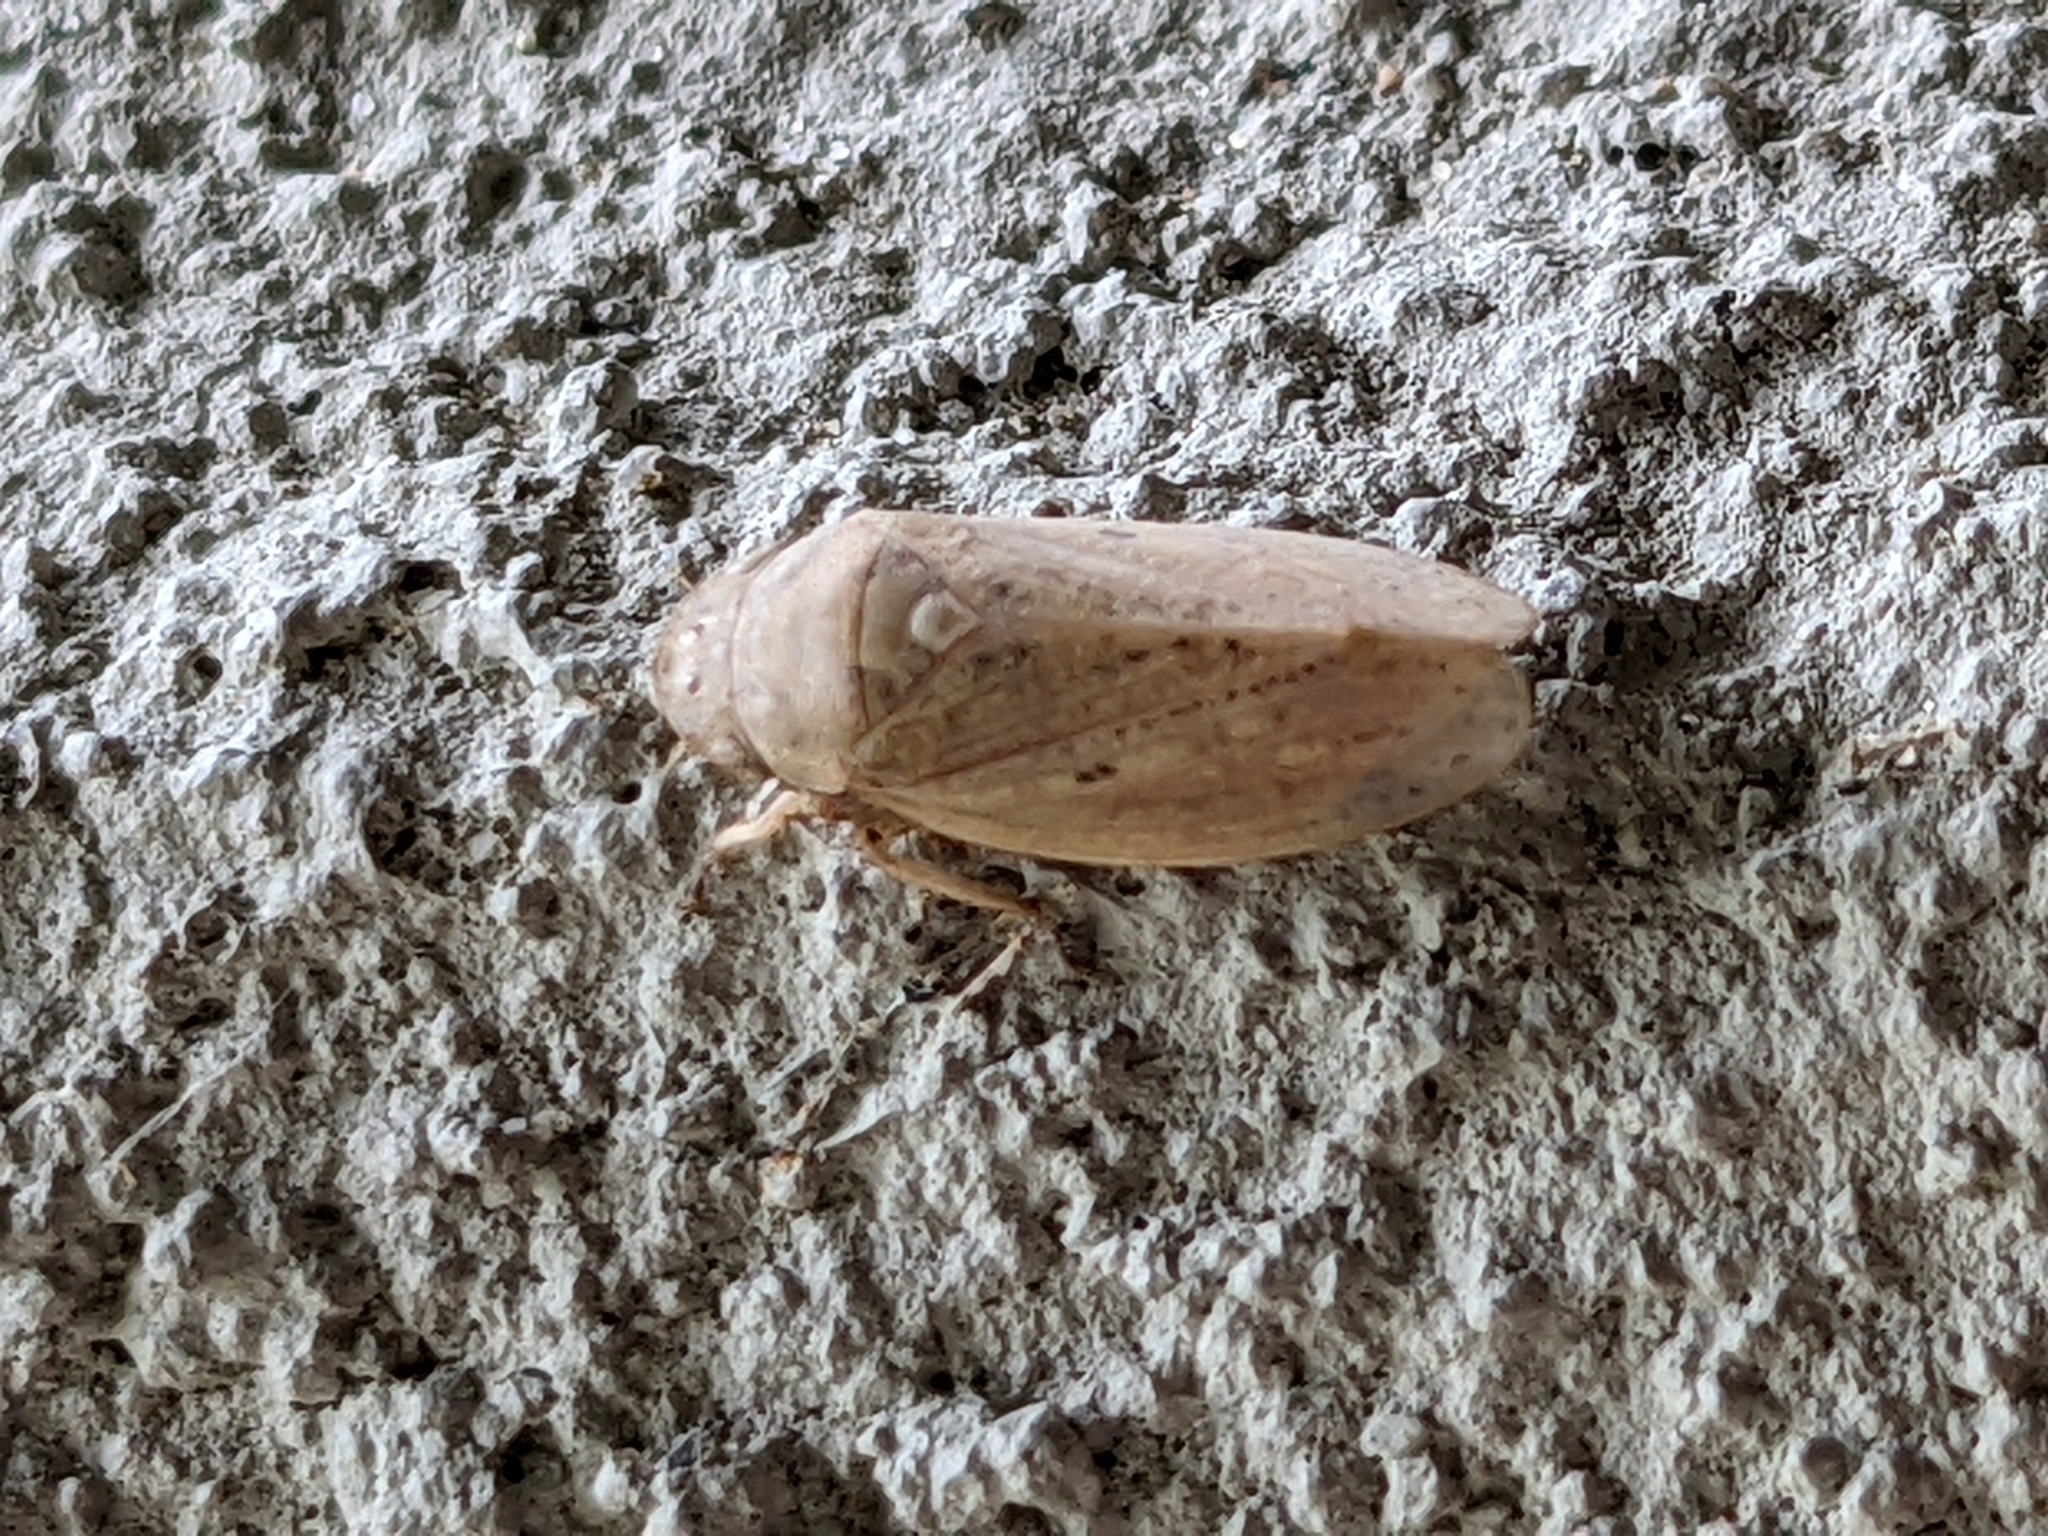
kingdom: Animalia
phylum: Arthropoda
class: Insecta
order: Hemiptera
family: Cicadellidae
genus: Negosiana
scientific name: Negosiana dualis
